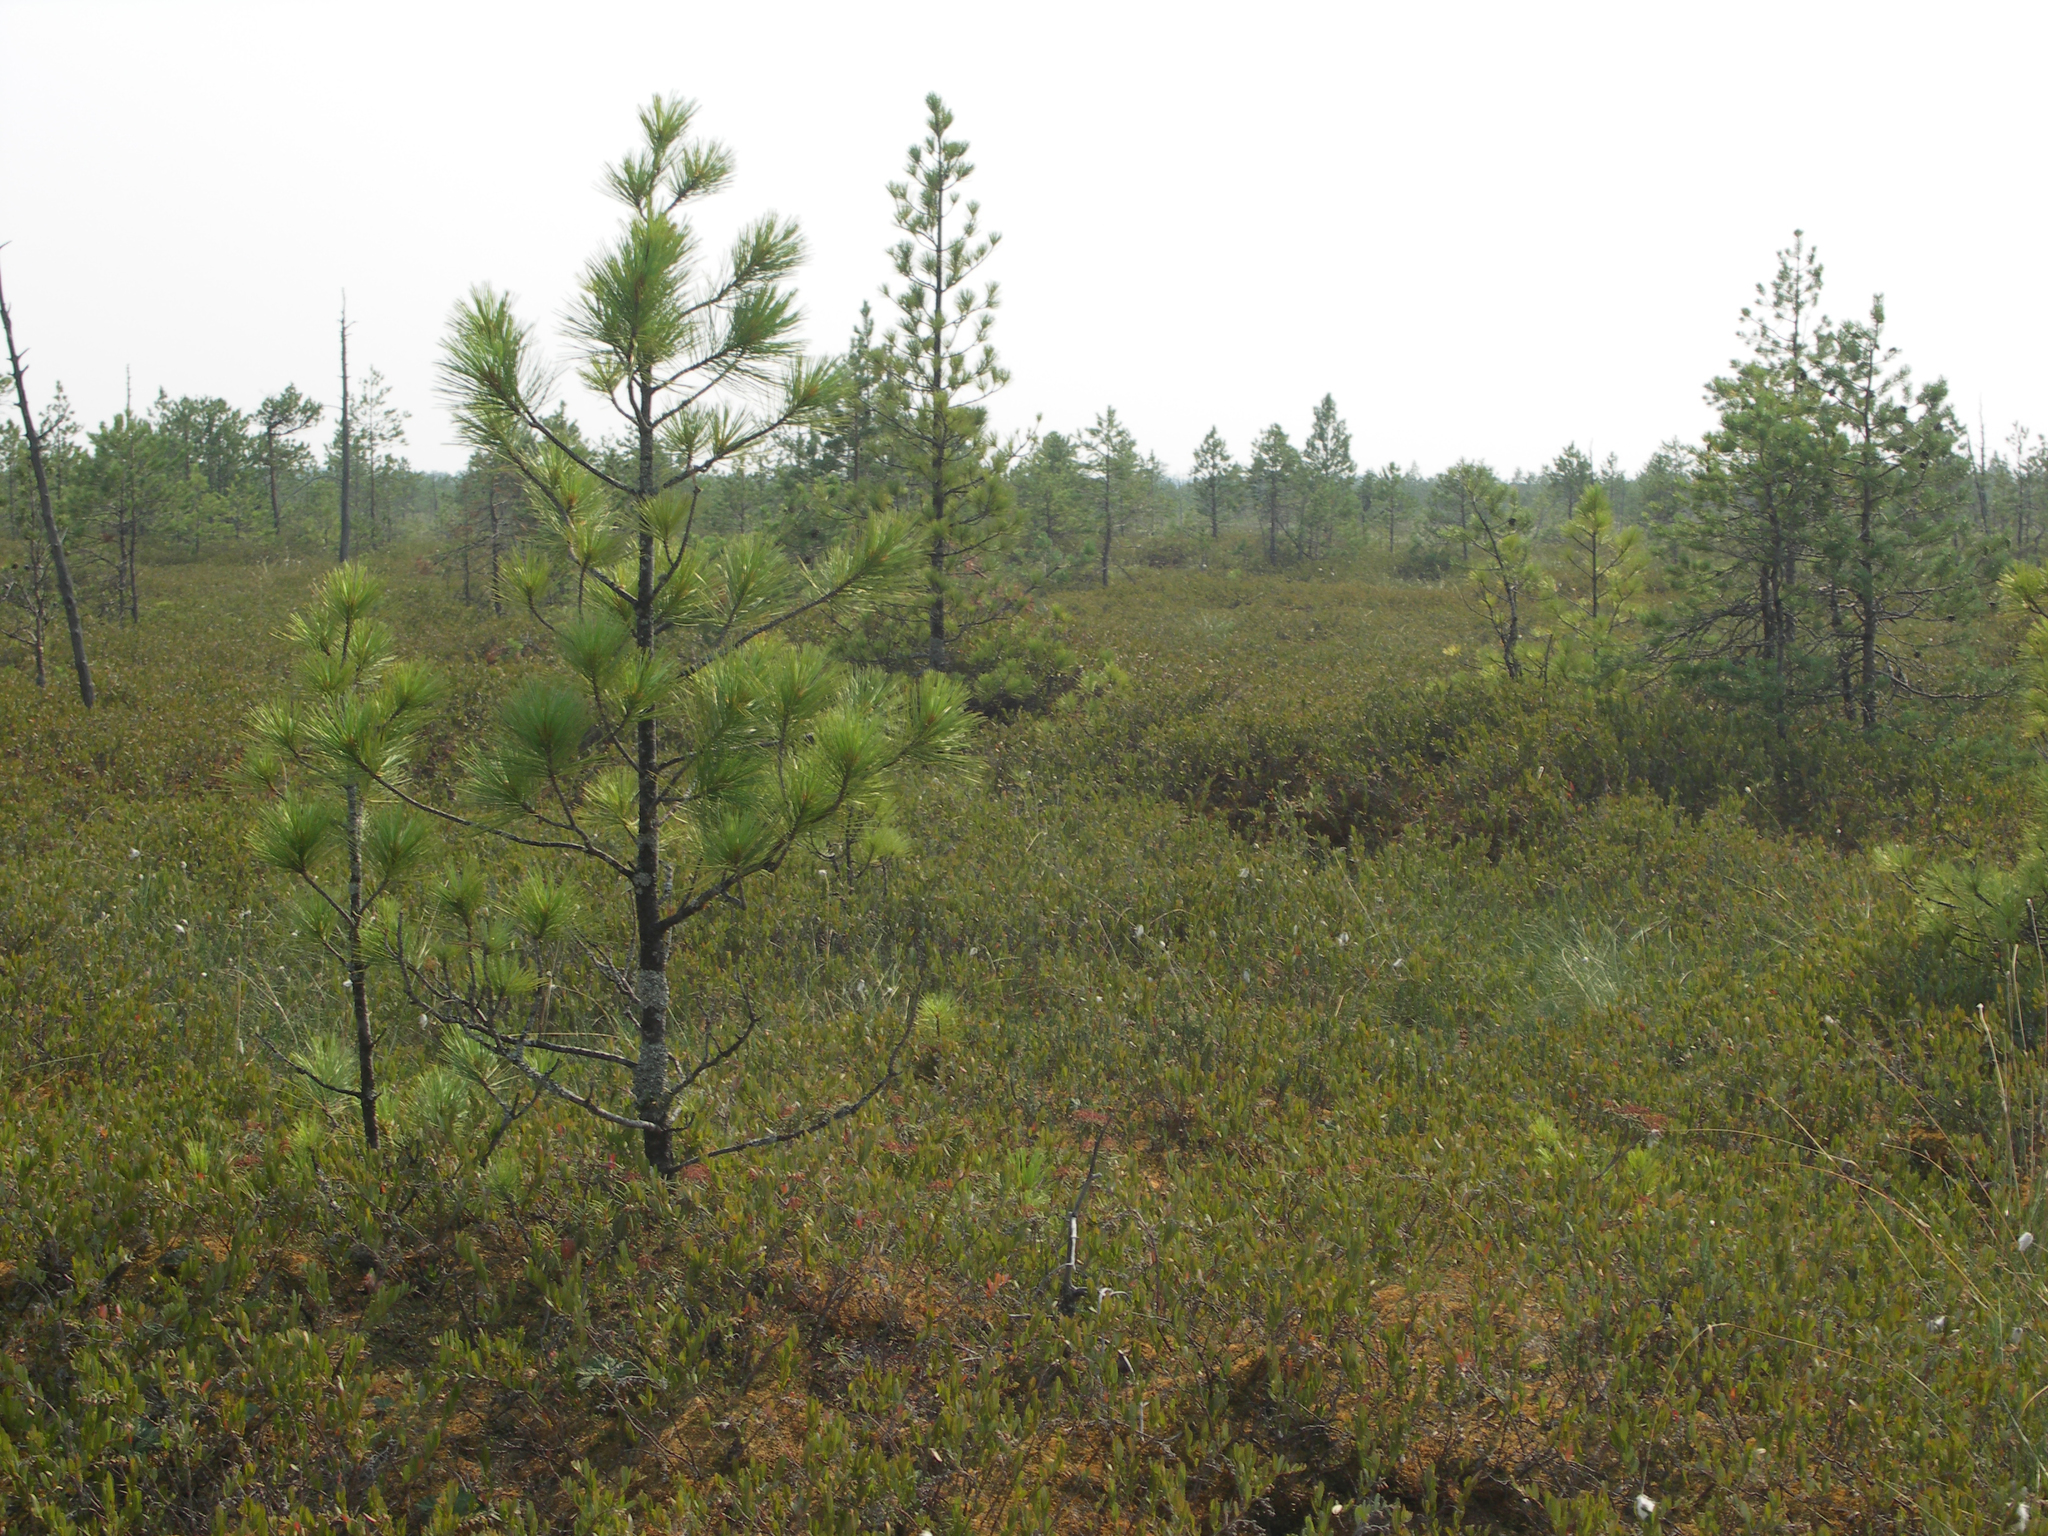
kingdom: Plantae
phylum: Tracheophyta
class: Pinopsida
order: Pinales
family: Pinaceae
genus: Pinus
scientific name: Pinus sibirica
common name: Siberian pine
